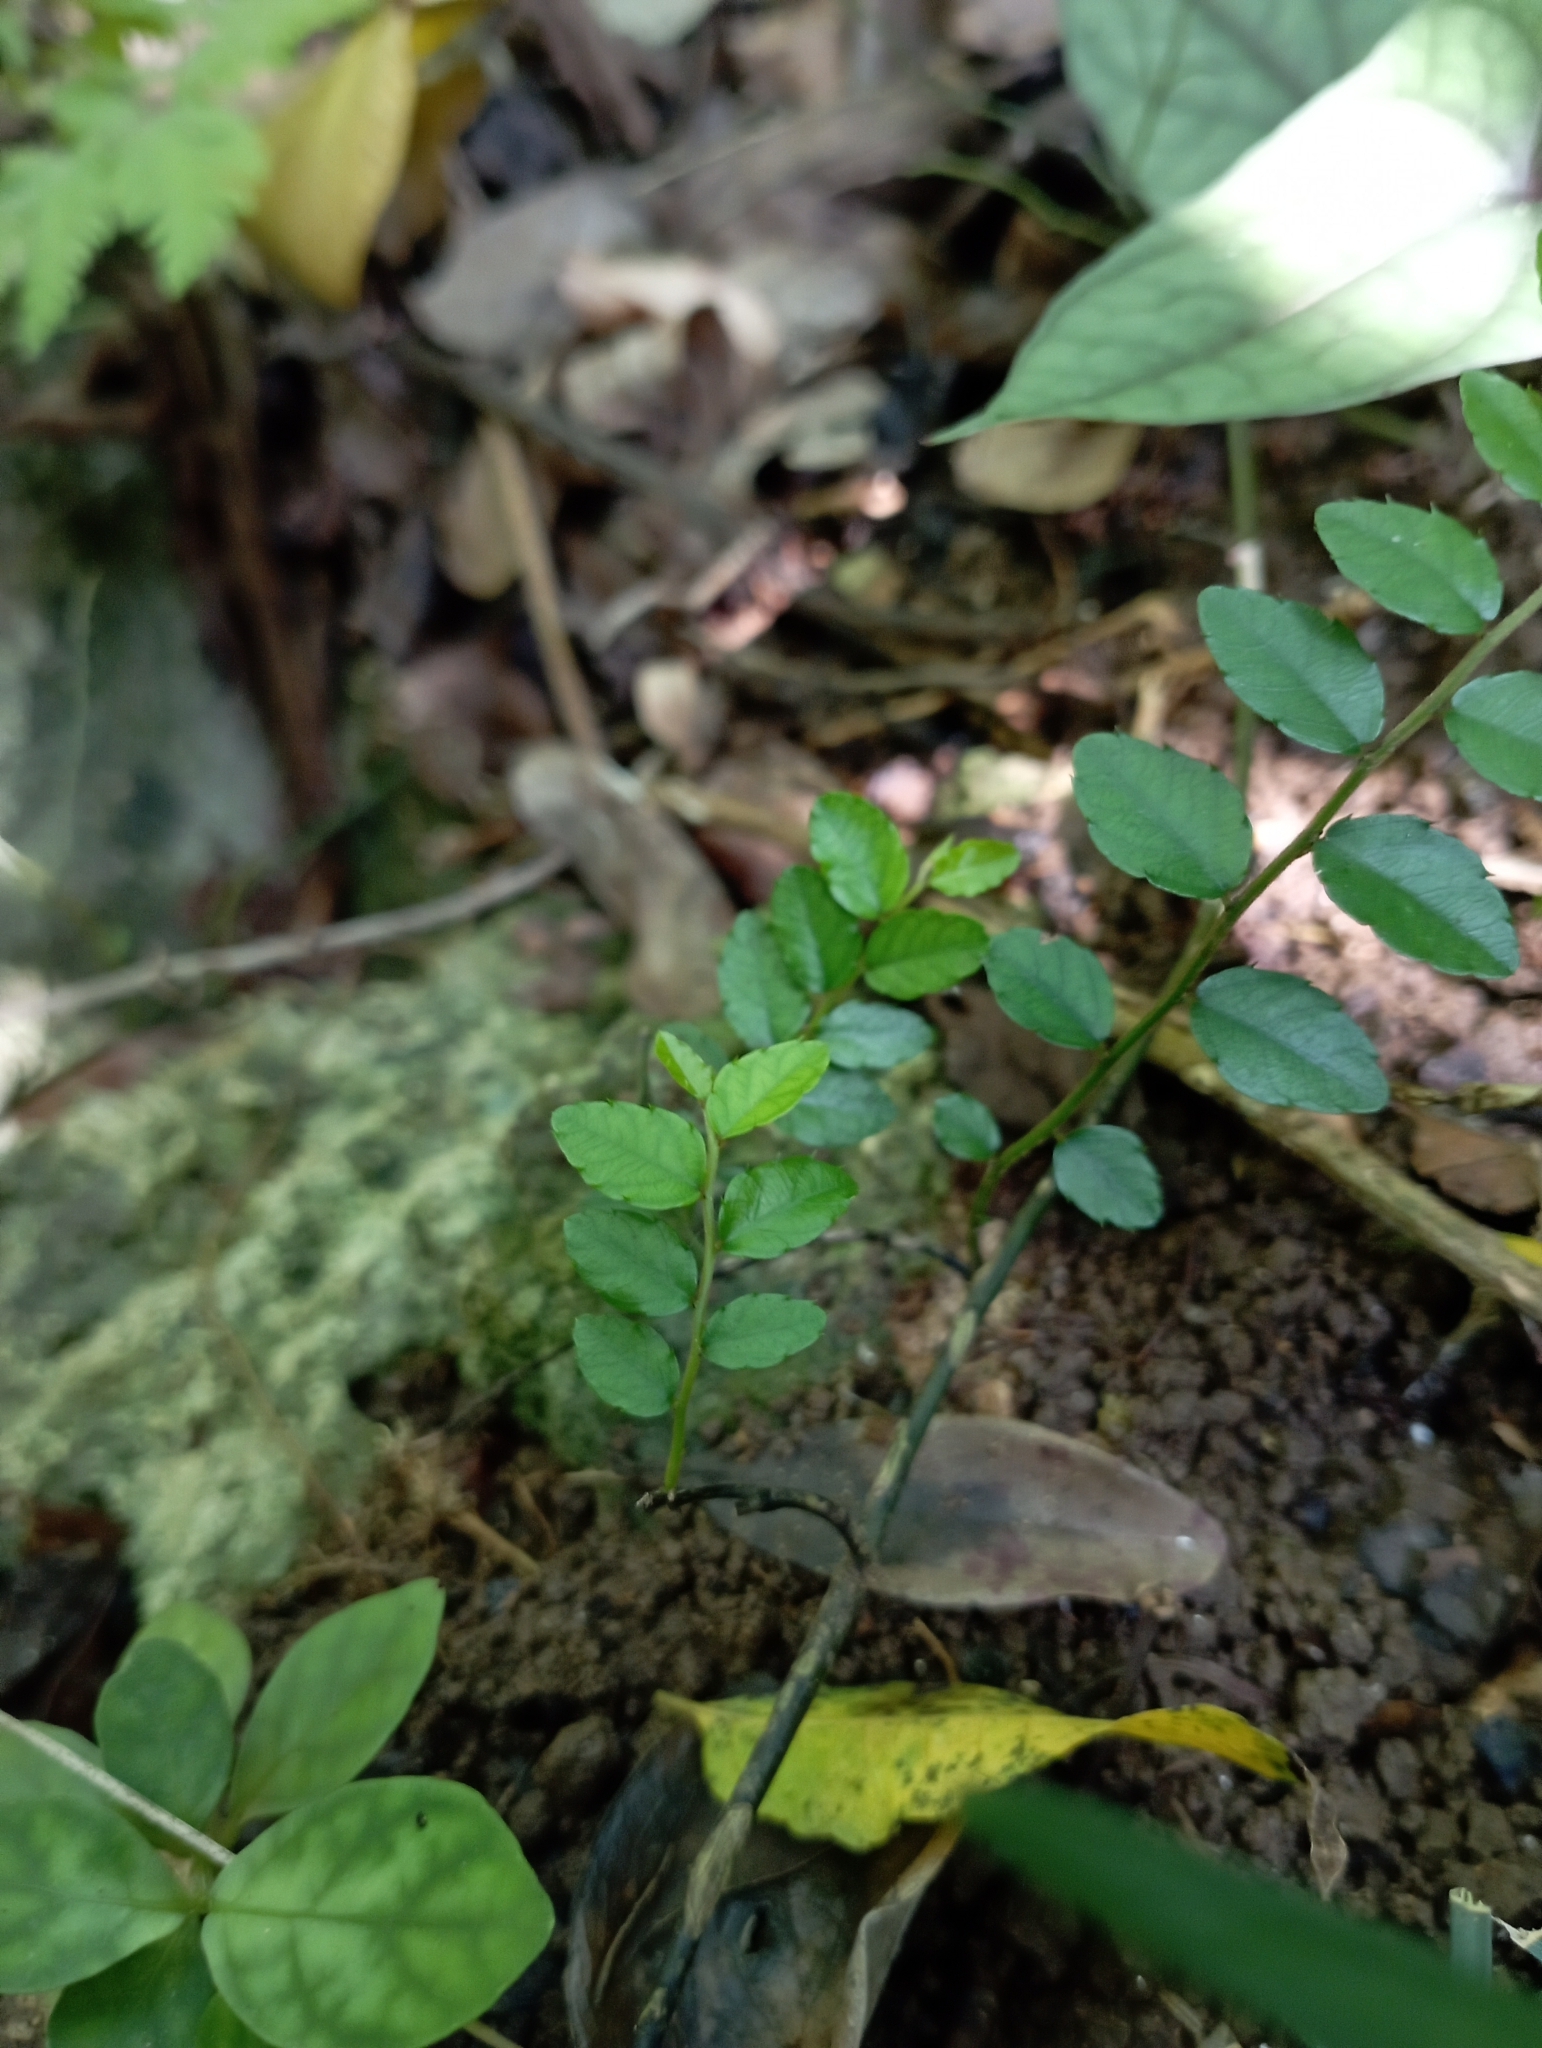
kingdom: Plantae
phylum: Tracheophyta
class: Magnoliopsida
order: Rosales
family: Rhamnaceae
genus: Ventilago
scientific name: Ventilago elegans
